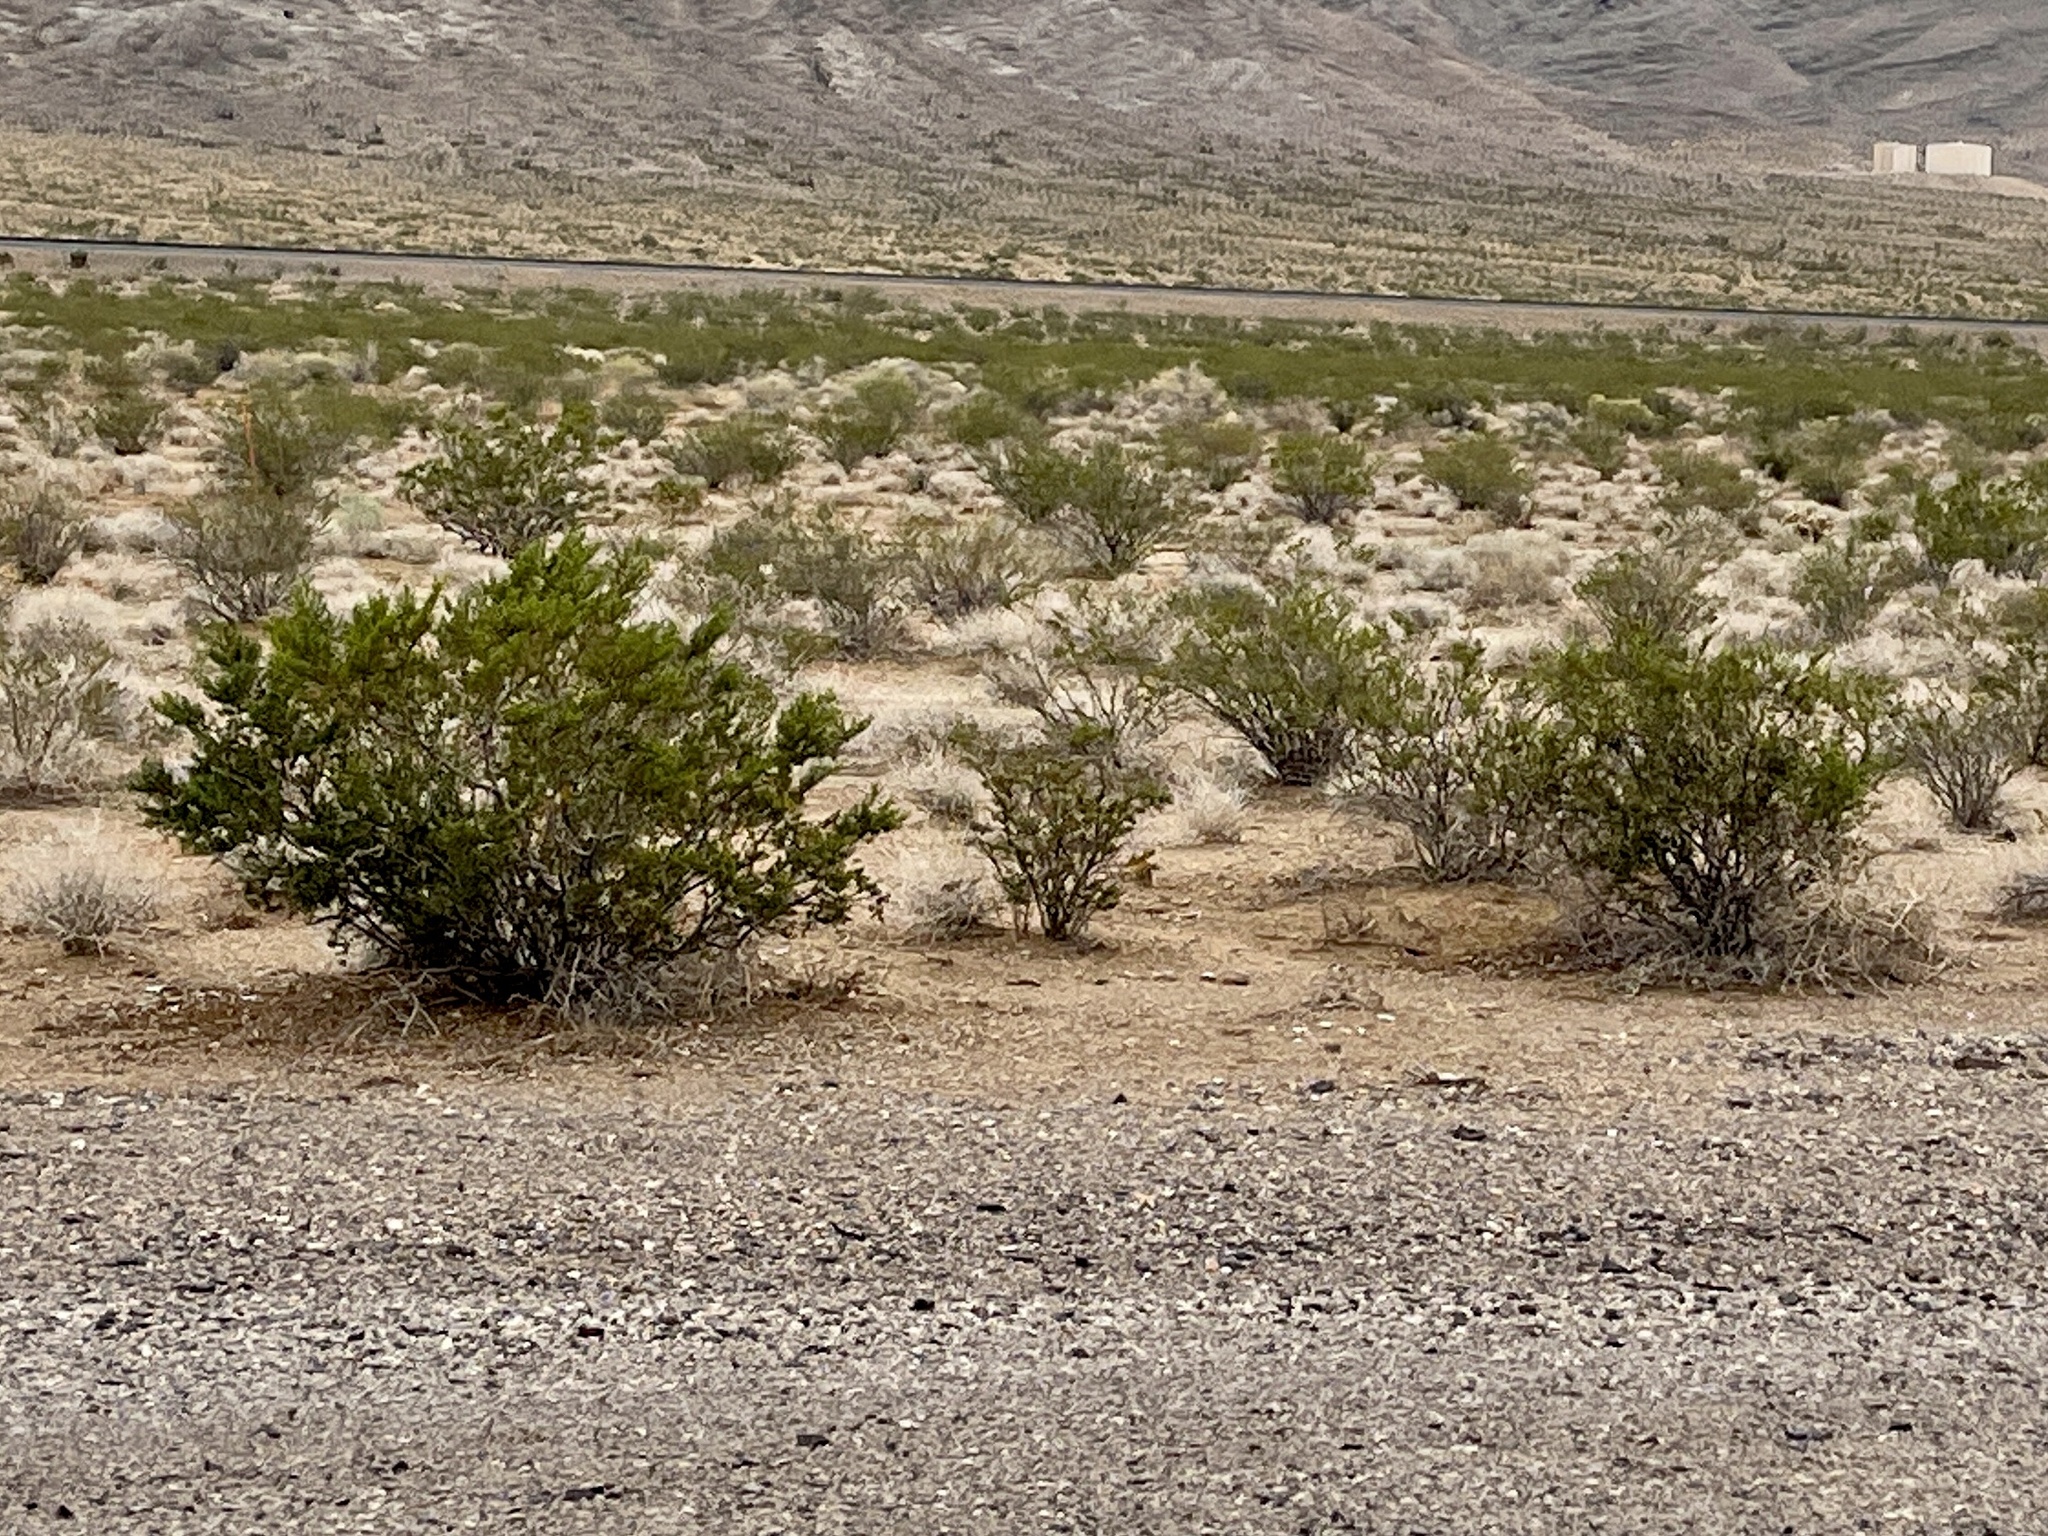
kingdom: Plantae
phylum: Tracheophyta
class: Magnoliopsida
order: Zygophyllales
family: Zygophyllaceae
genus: Larrea
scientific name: Larrea tridentata
